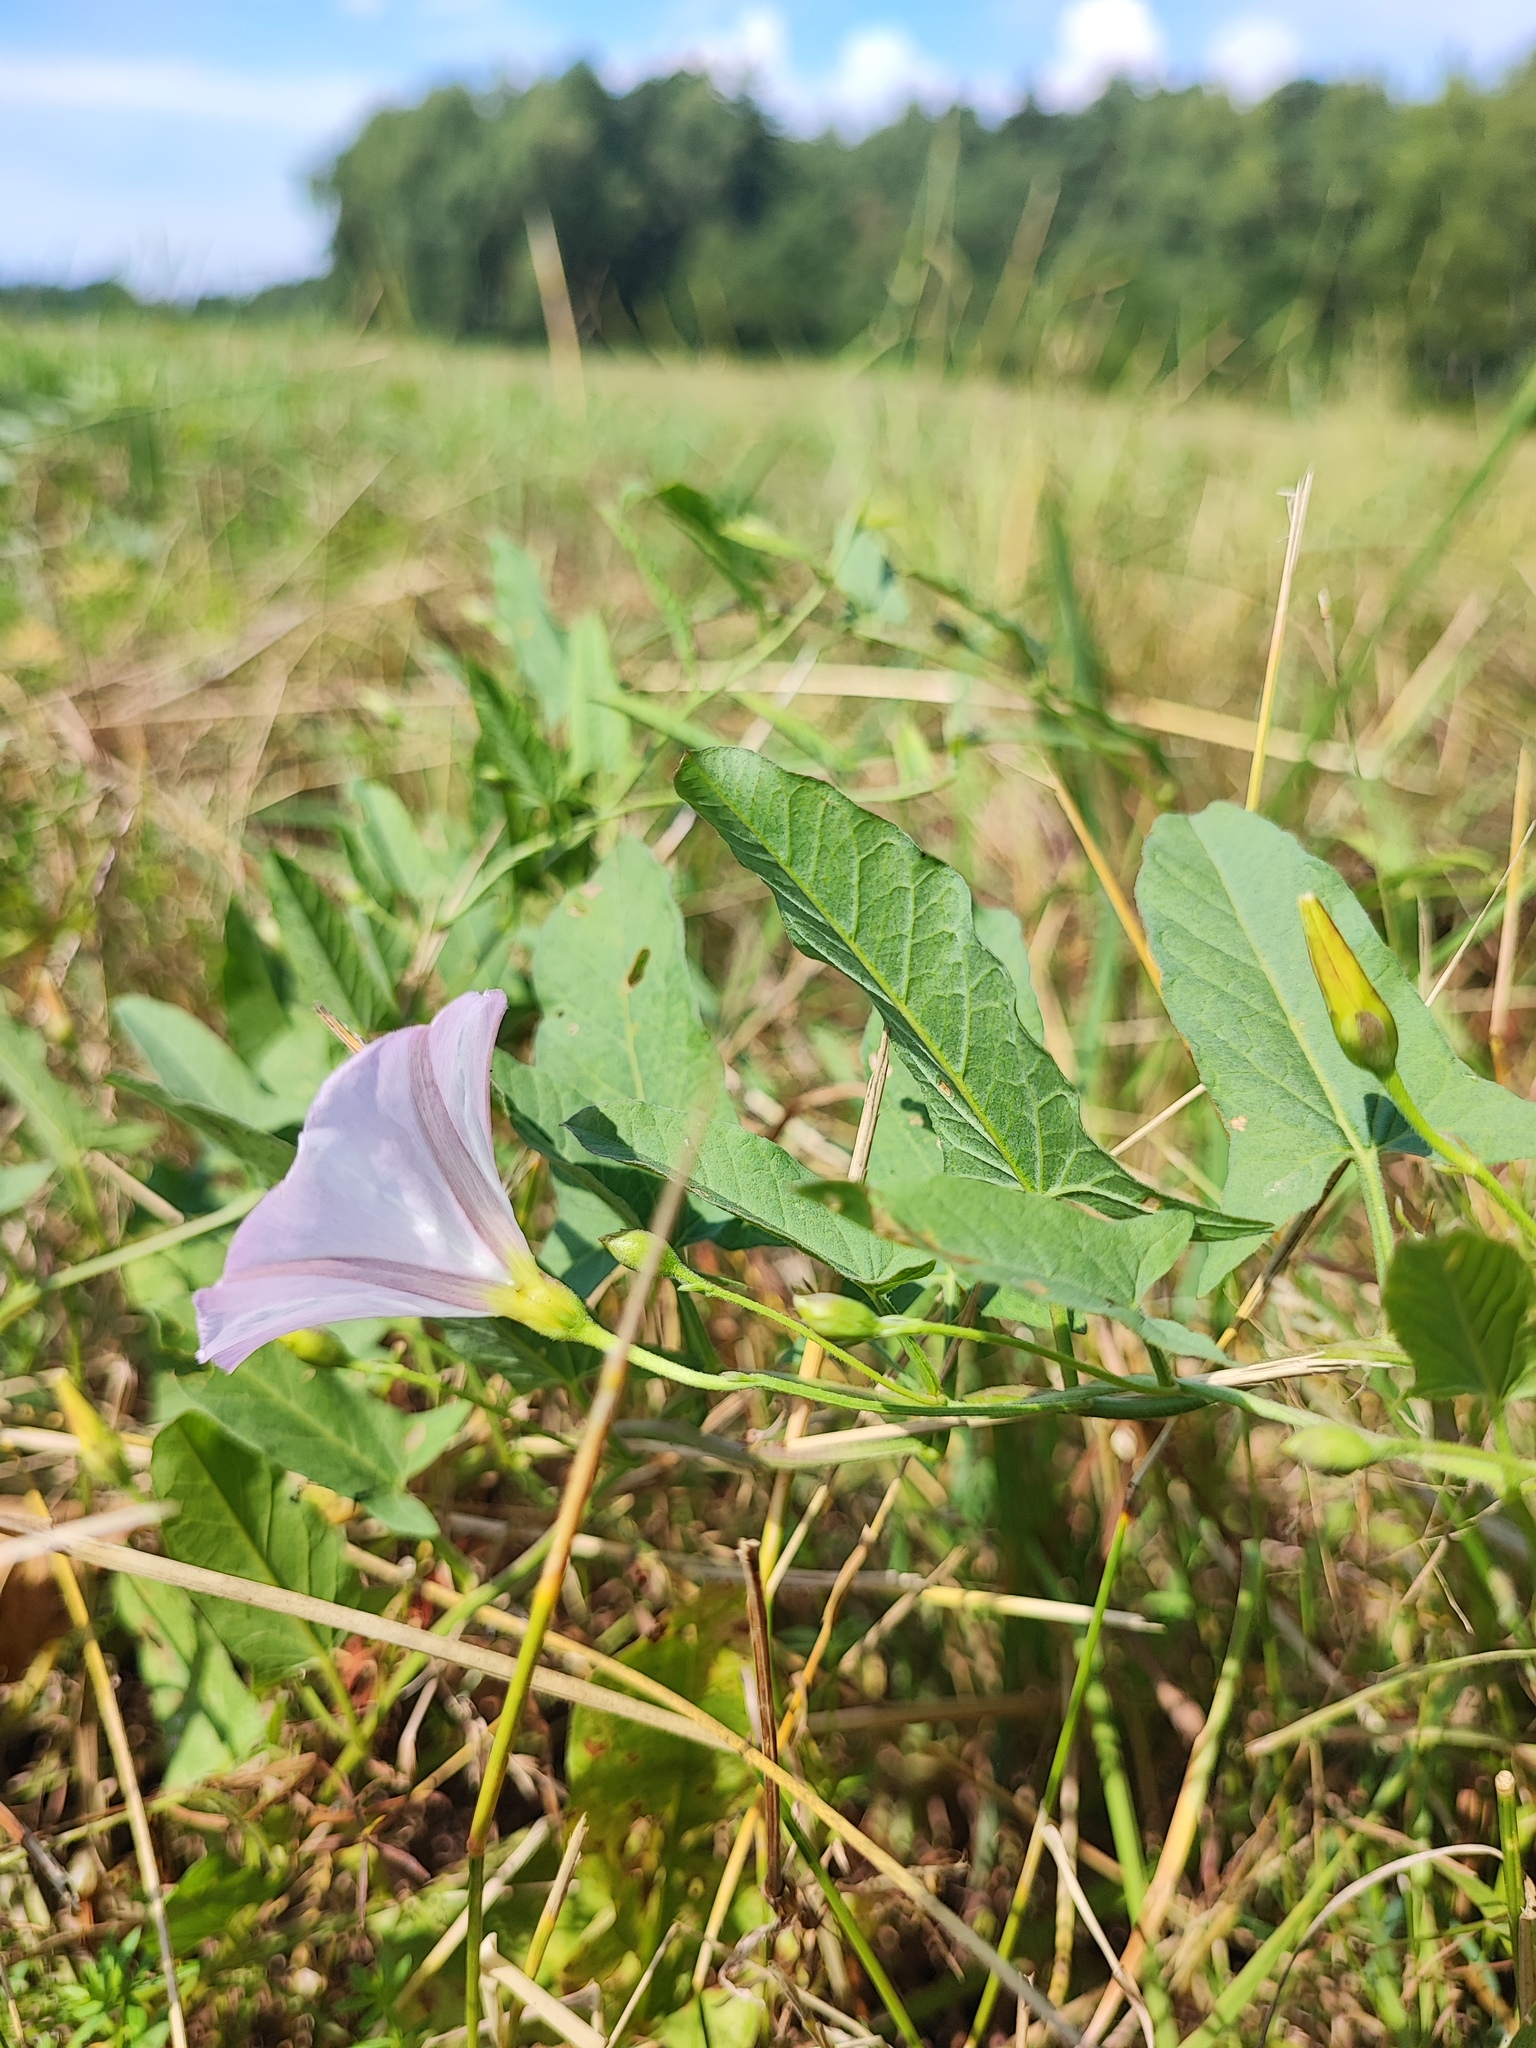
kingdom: Plantae
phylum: Tracheophyta
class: Magnoliopsida
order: Solanales
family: Convolvulaceae
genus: Convolvulus
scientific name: Convolvulus arvensis
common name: Field bindweed
